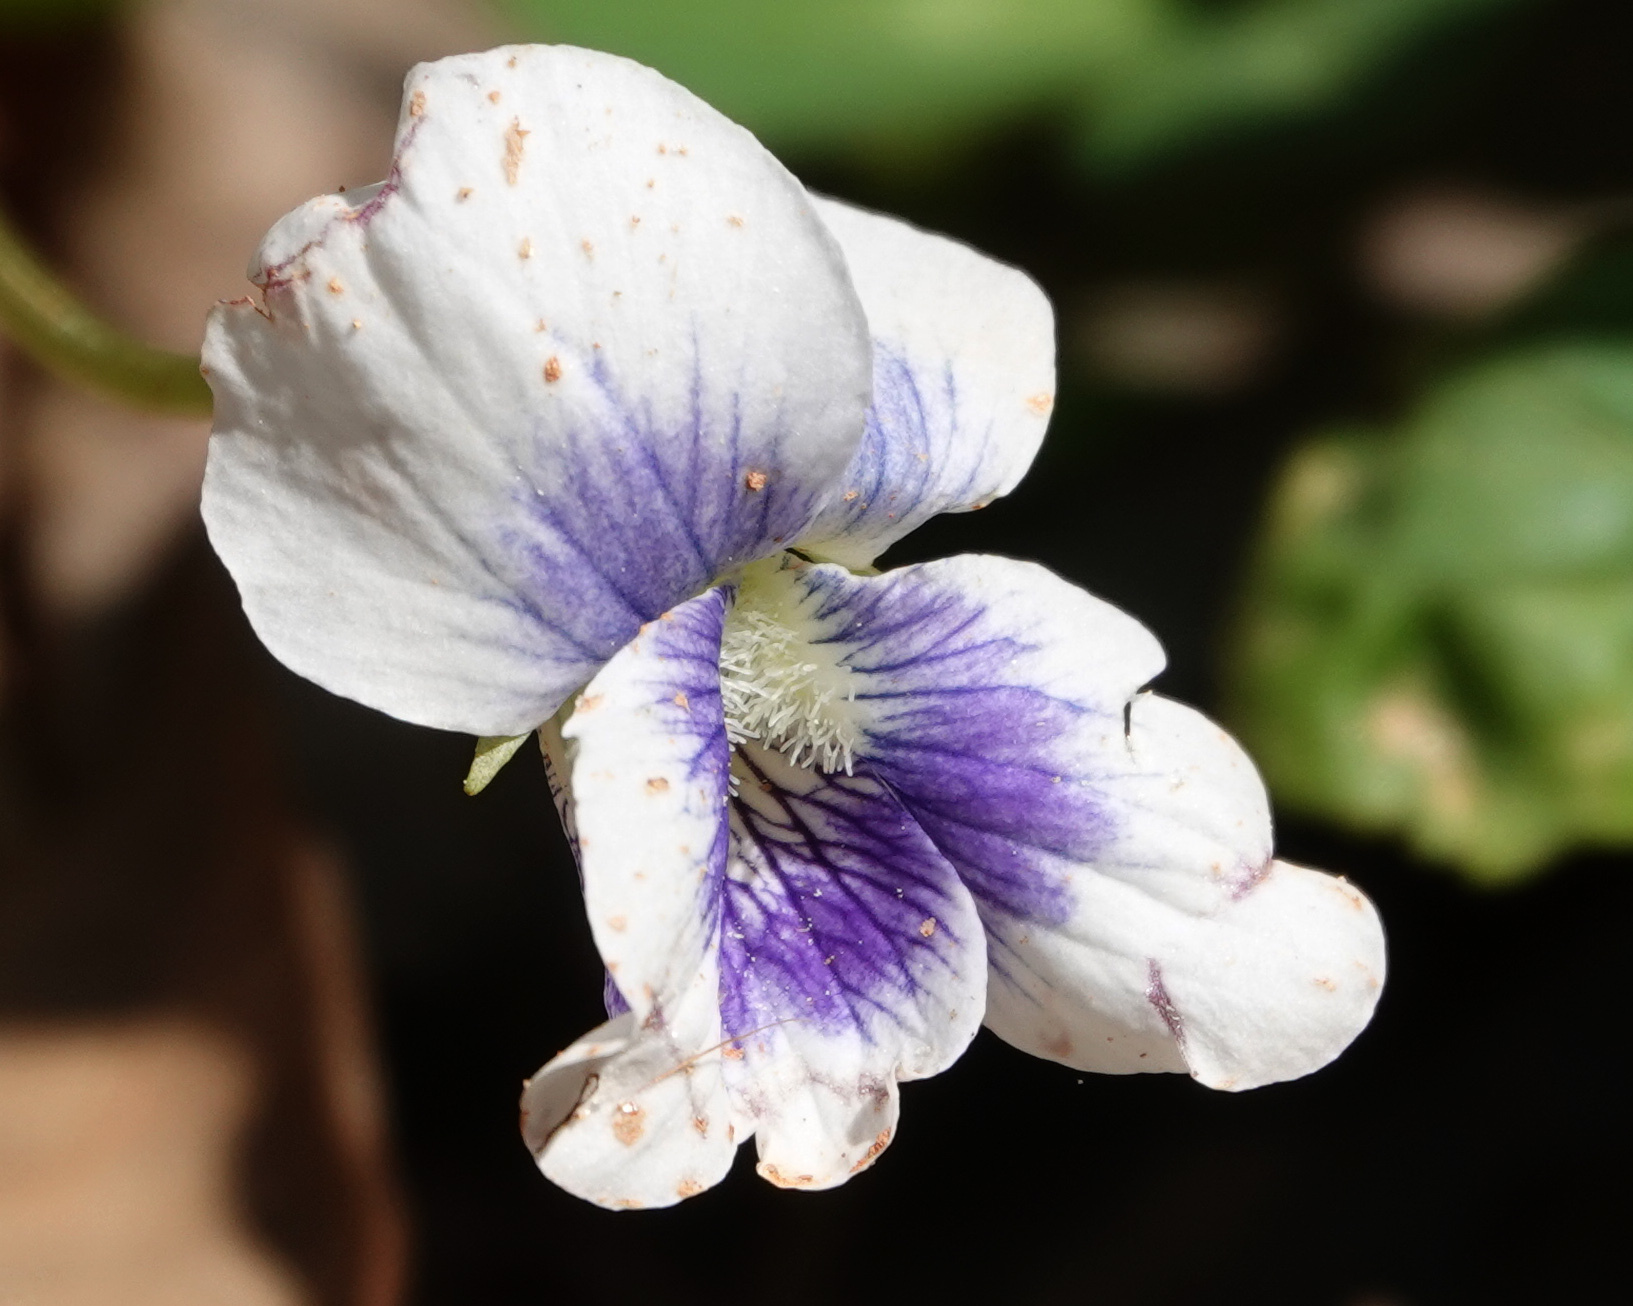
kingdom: Plantae
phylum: Tracheophyta
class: Magnoliopsida
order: Malpighiales
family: Violaceae
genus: Viola
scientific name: Viola sororia
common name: Dooryard violet
